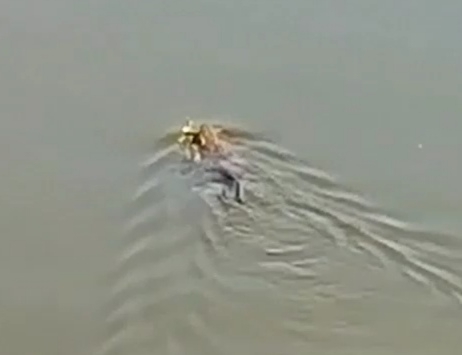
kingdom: Animalia
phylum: Chordata
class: Mammalia
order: Rodentia
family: Cricetidae
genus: Ondatra
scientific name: Ondatra zibethicus
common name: Muskrat
